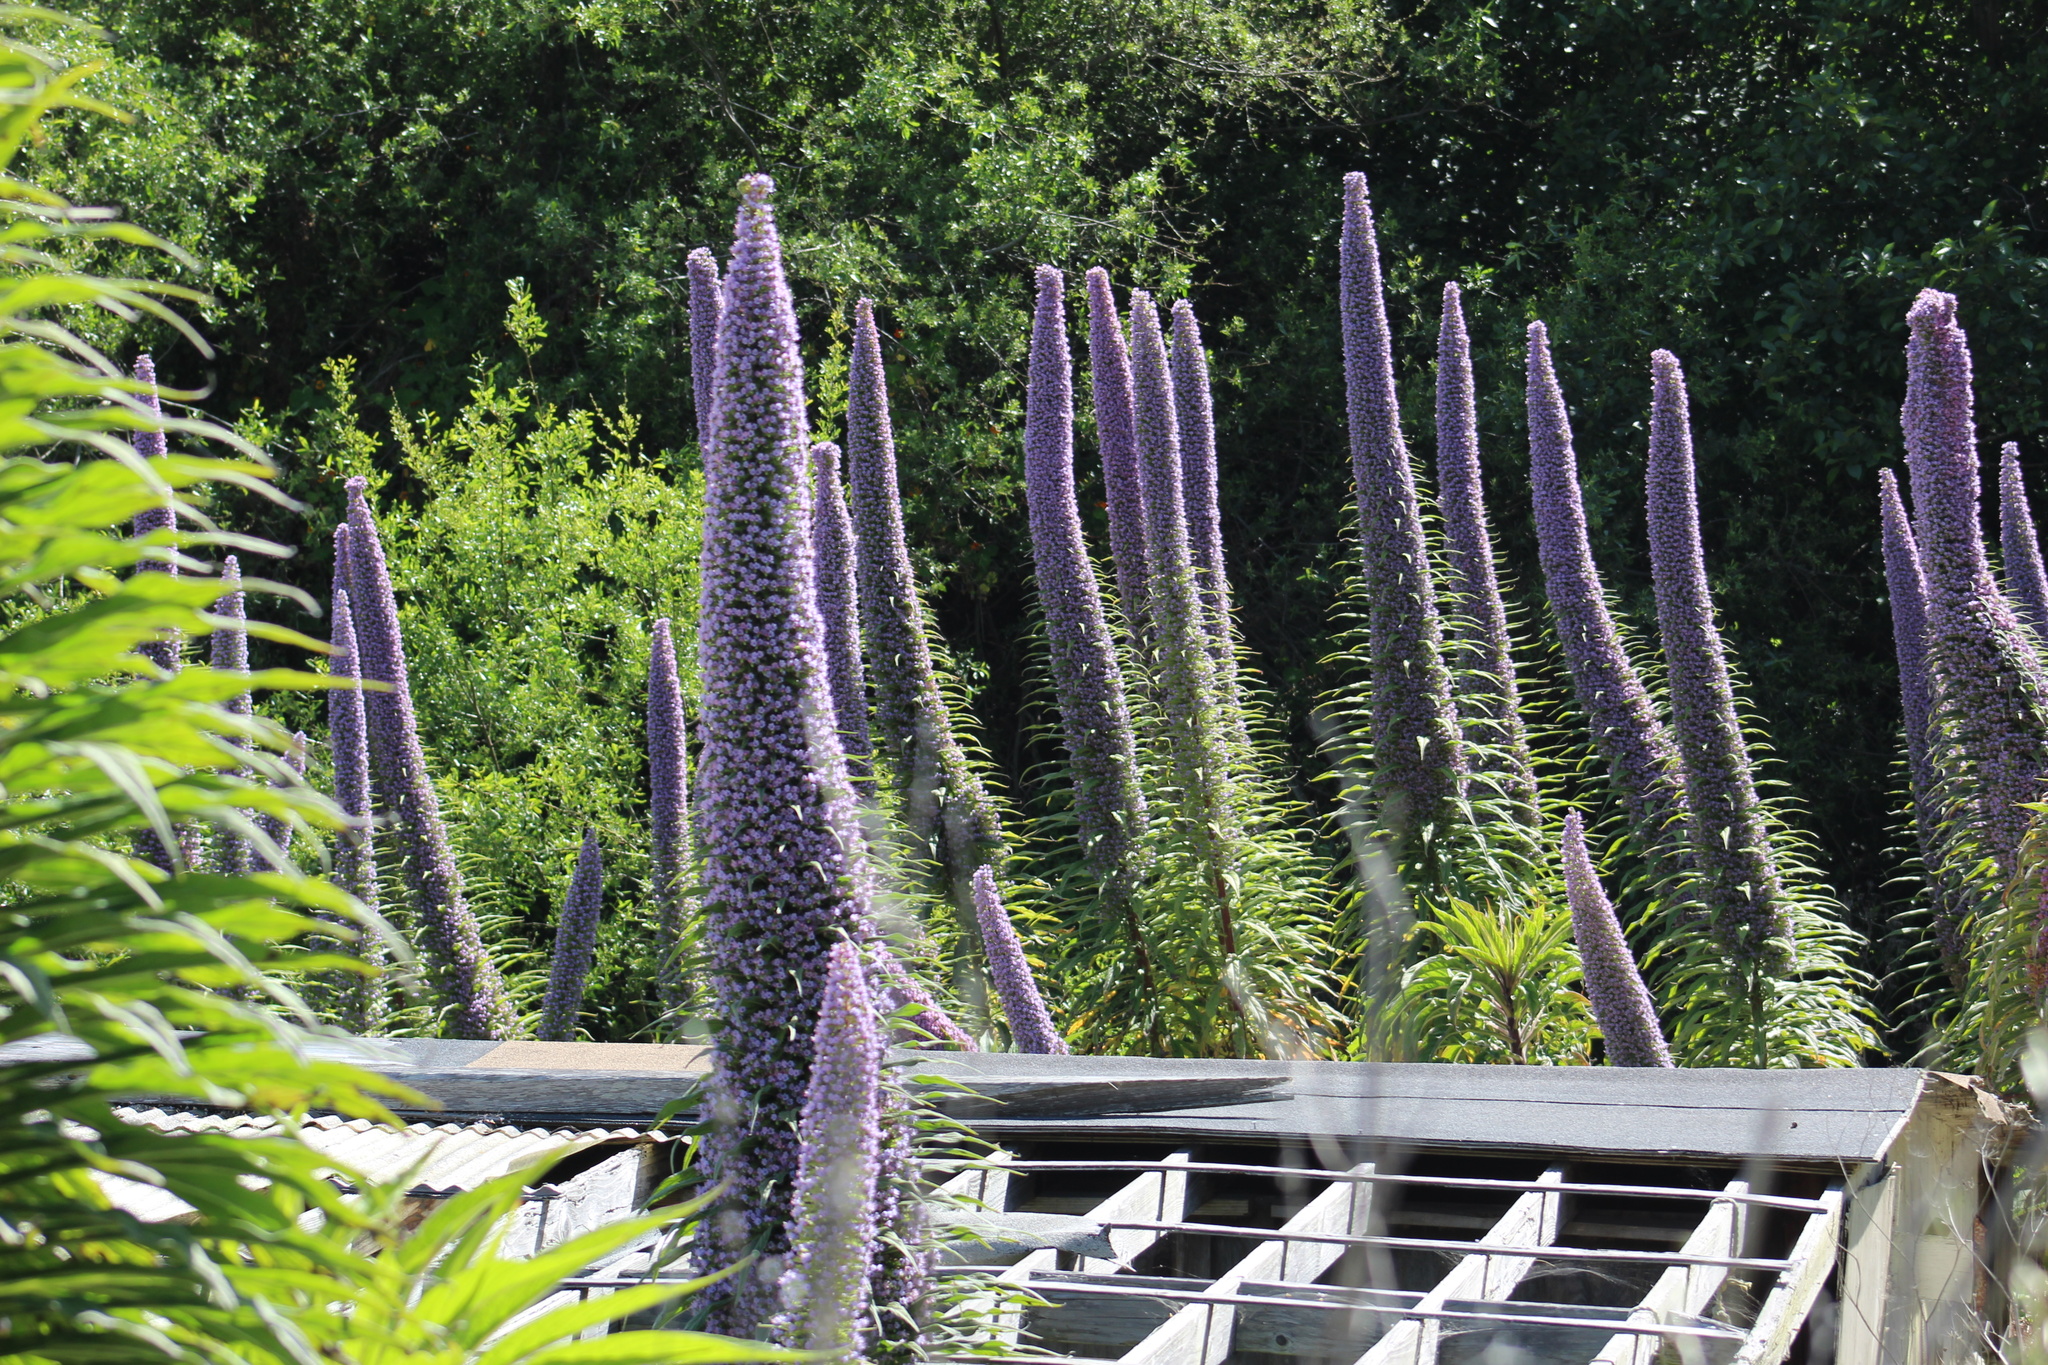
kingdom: Plantae
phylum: Tracheophyta
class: Magnoliopsida
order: Boraginales
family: Boraginaceae
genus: Echium
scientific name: Echium pininana
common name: Giant viper's-bugloss
